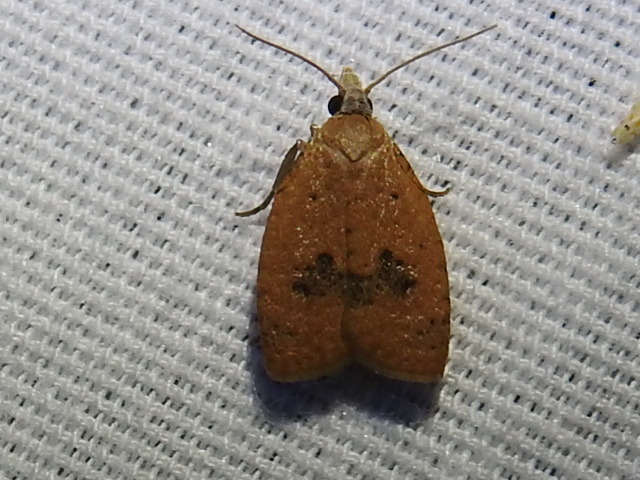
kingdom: Animalia
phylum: Arthropoda
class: Insecta
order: Lepidoptera
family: Tortricidae
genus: Sparganothoides
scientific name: Sparganothoides lentiginosana
